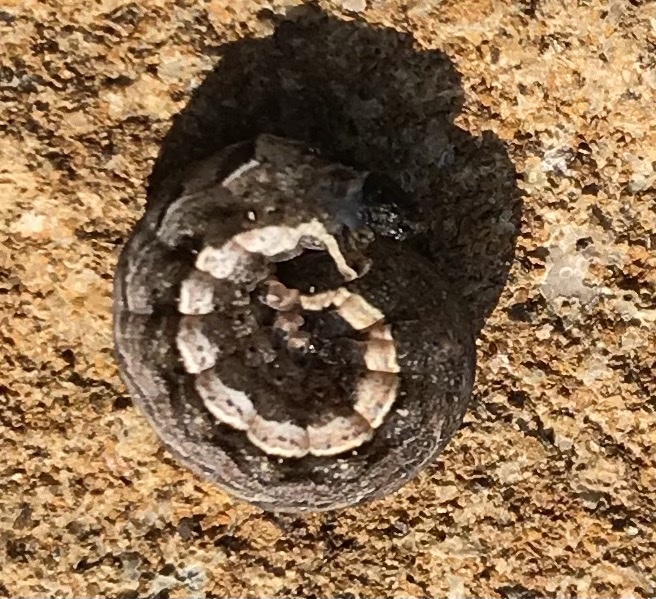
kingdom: Animalia
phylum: Arthropoda
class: Insecta
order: Lepidoptera
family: Noctuidae
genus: Noctua
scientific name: Noctua comes
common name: Lesser yellow underwing
